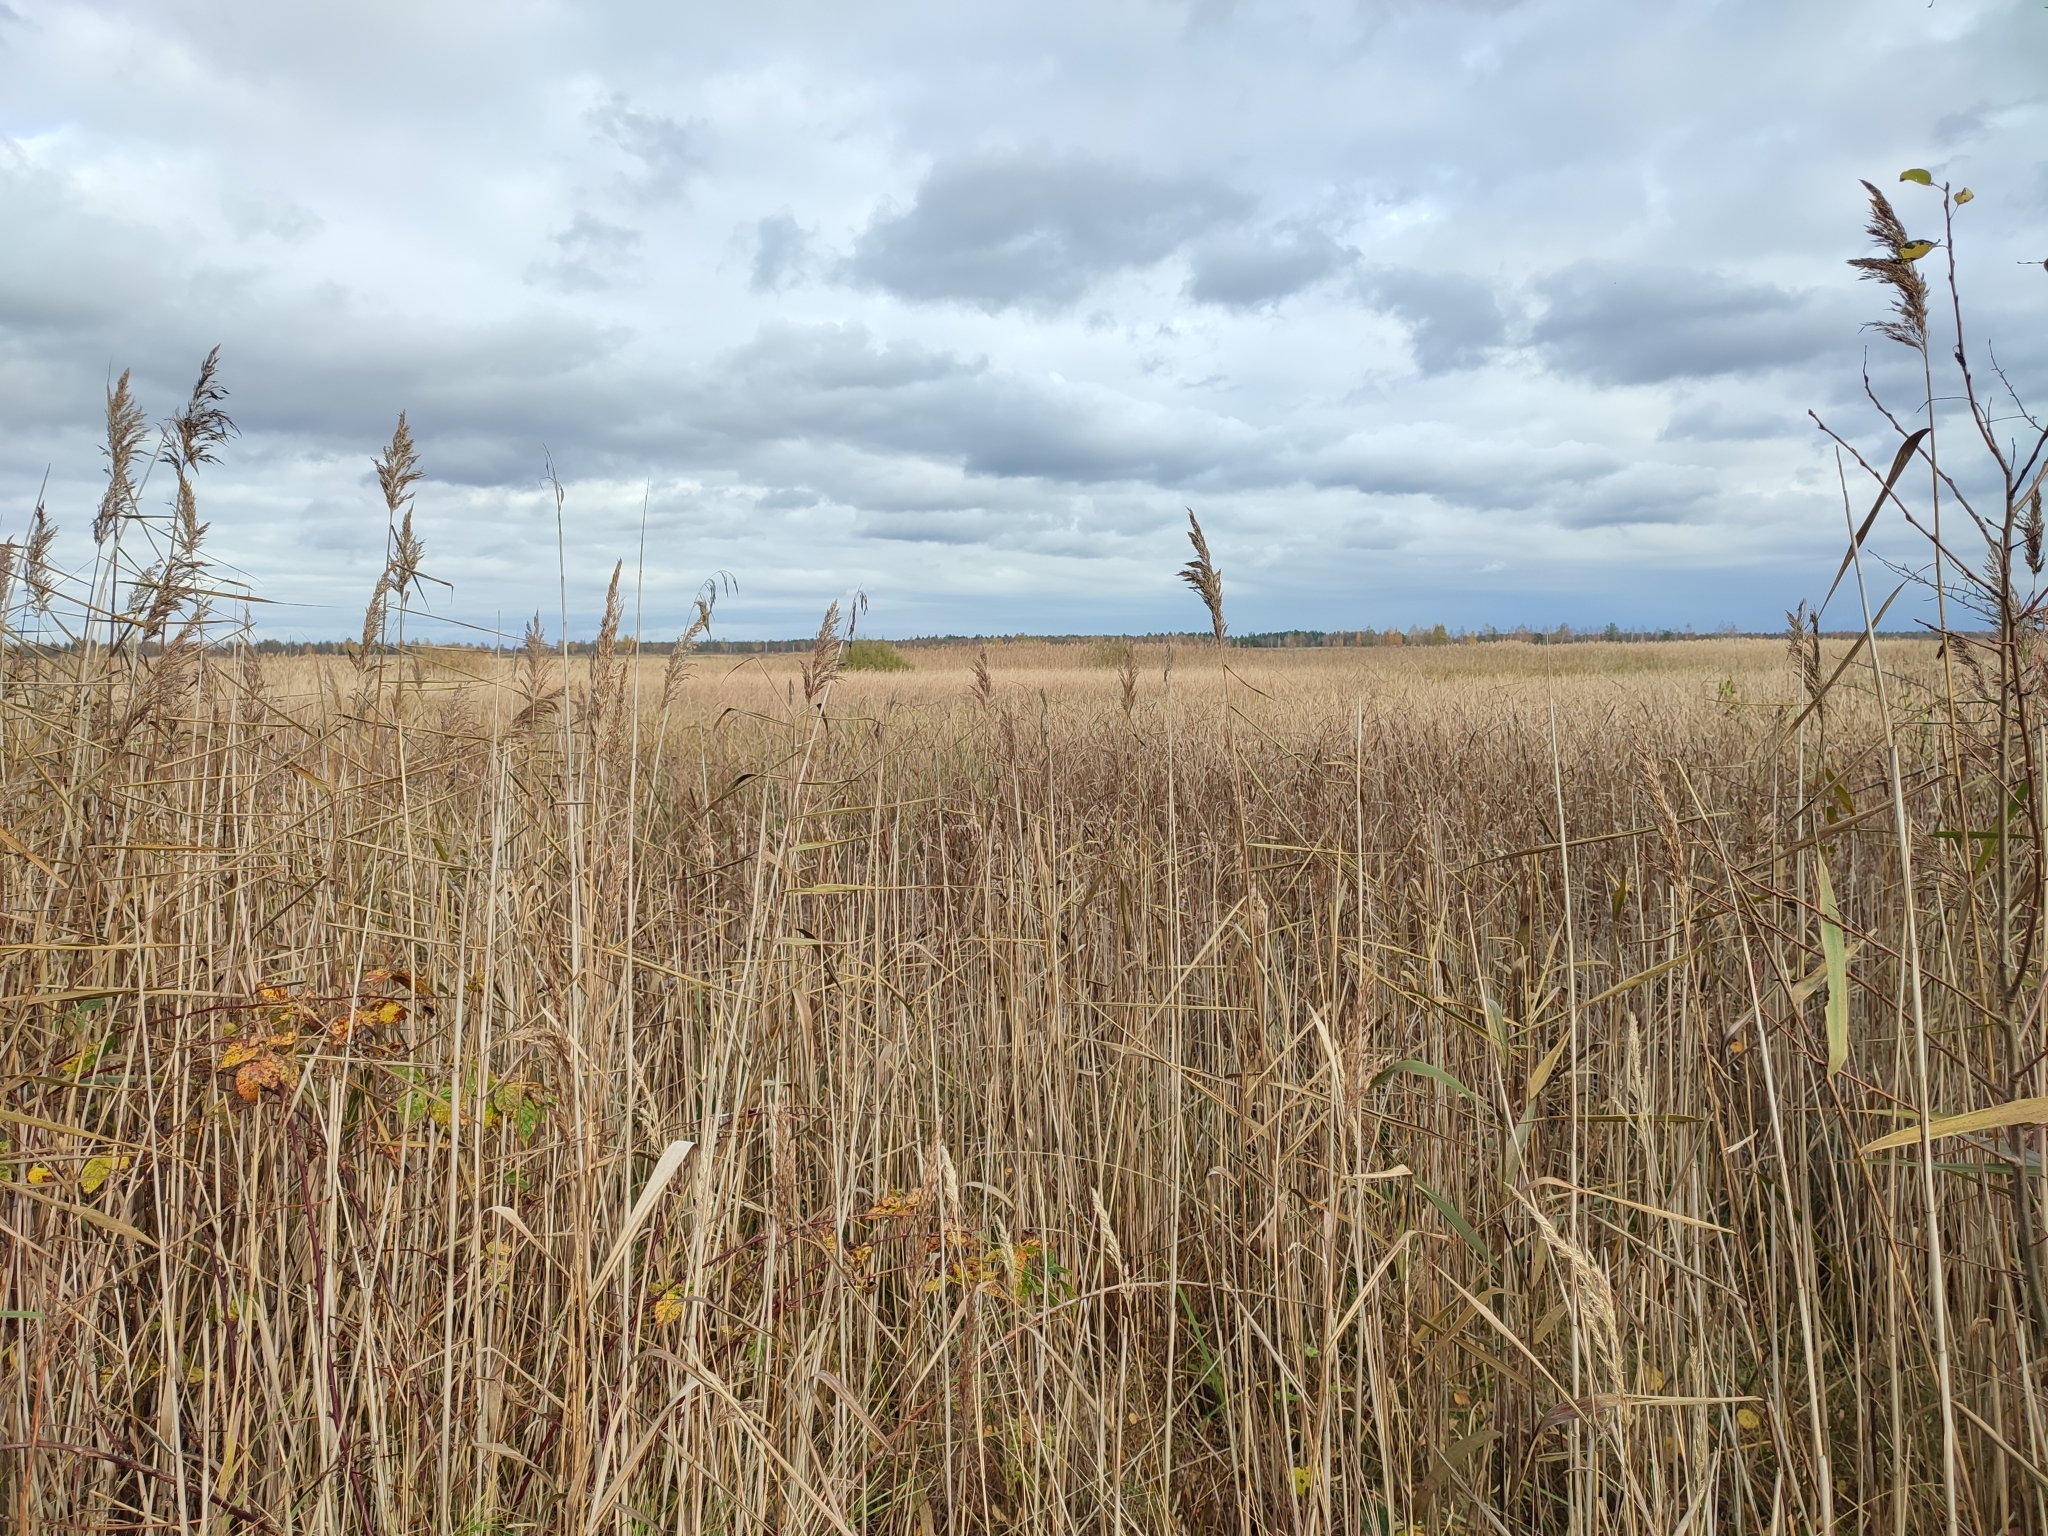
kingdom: Plantae
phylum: Tracheophyta
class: Liliopsida
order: Poales
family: Poaceae
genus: Phragmites
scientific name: Phragmites australis
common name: Common reed
